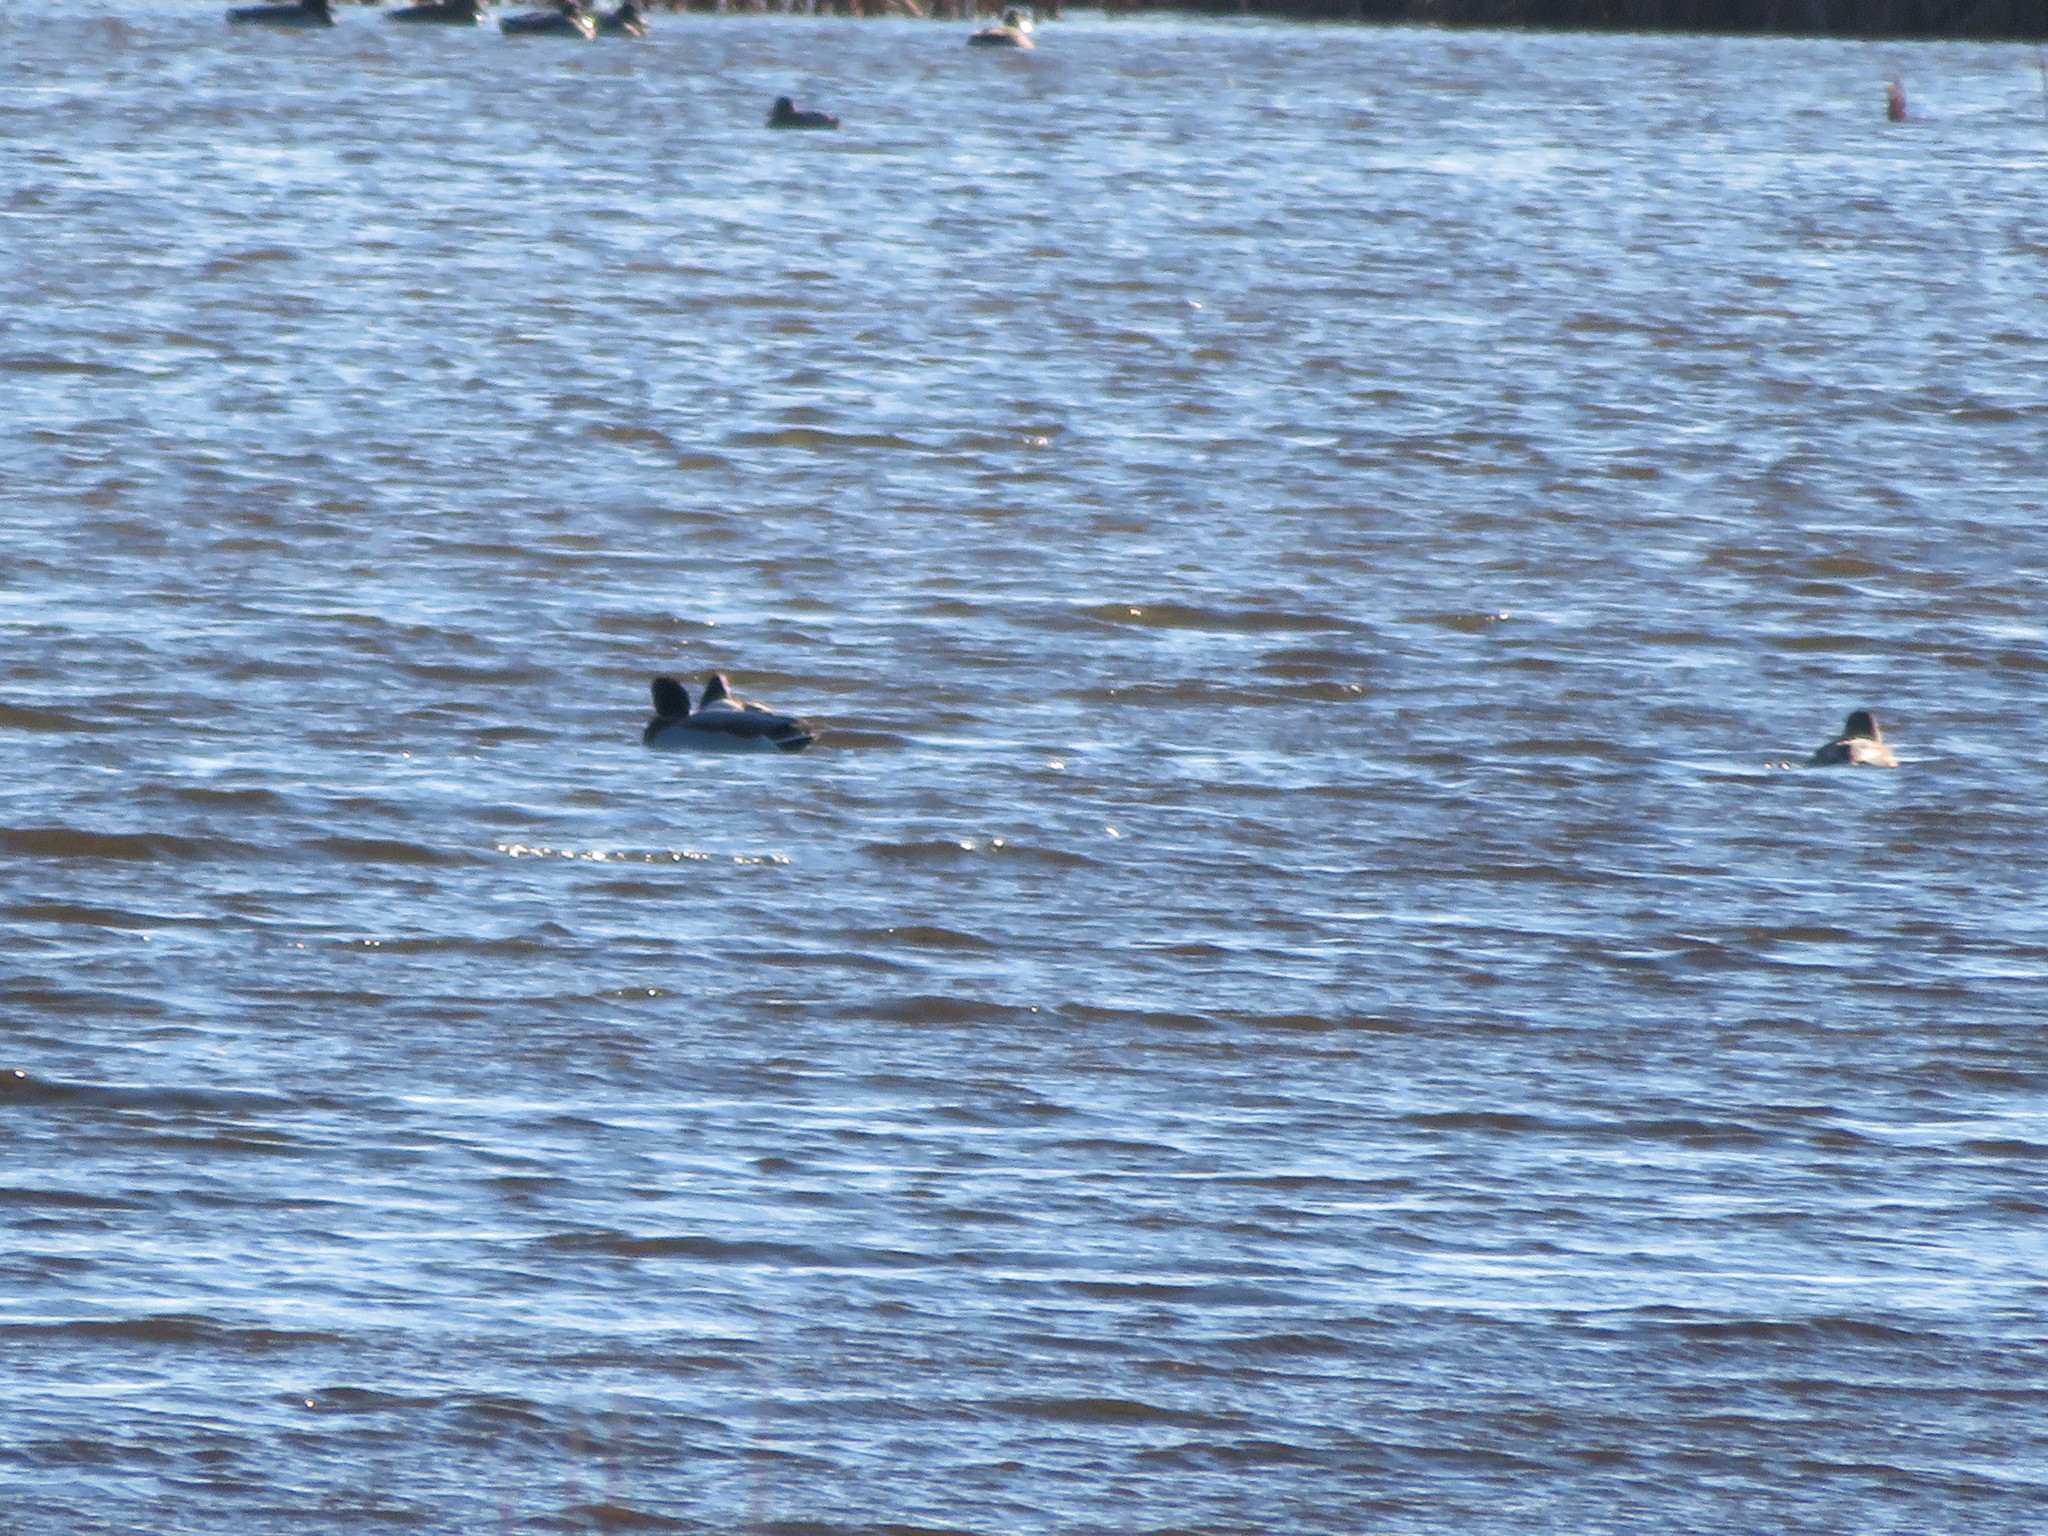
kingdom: Animalia
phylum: Chordata
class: Aves
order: Anseriformes
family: Anatidae
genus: Anas
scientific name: Anas platyrhynchos
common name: Mallard
